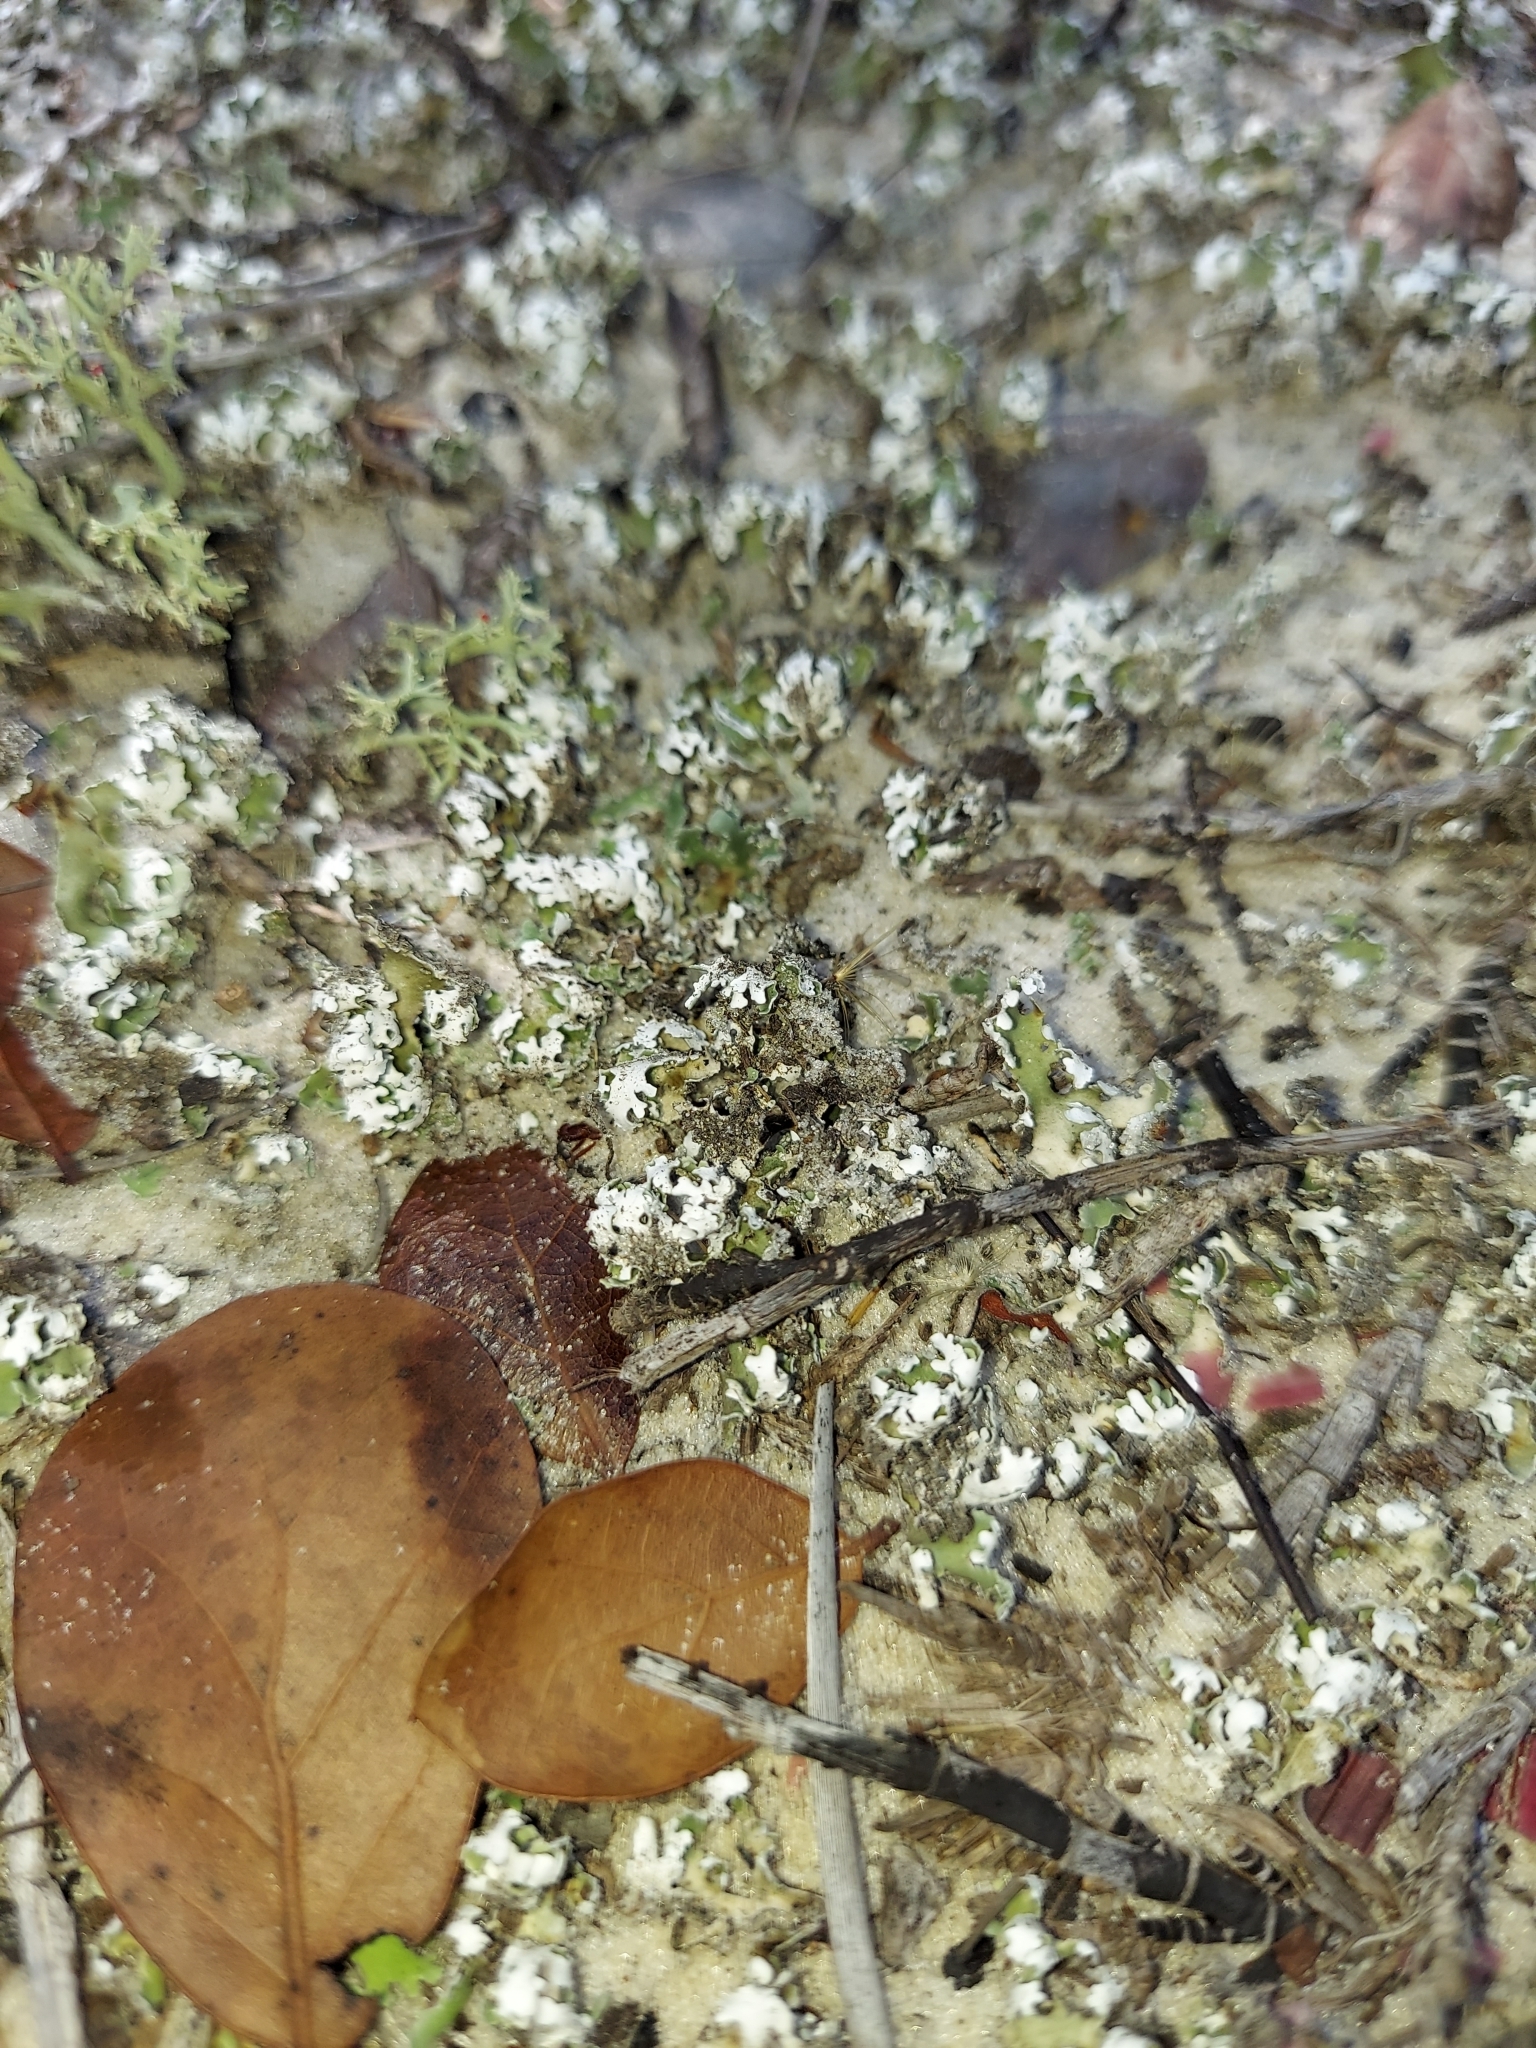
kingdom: Fungi
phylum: Ascomycota
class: Lecanoromycetes
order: Lecanorales
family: Cladoniaceae
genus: Cladonia
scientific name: Cladonia prostrata
